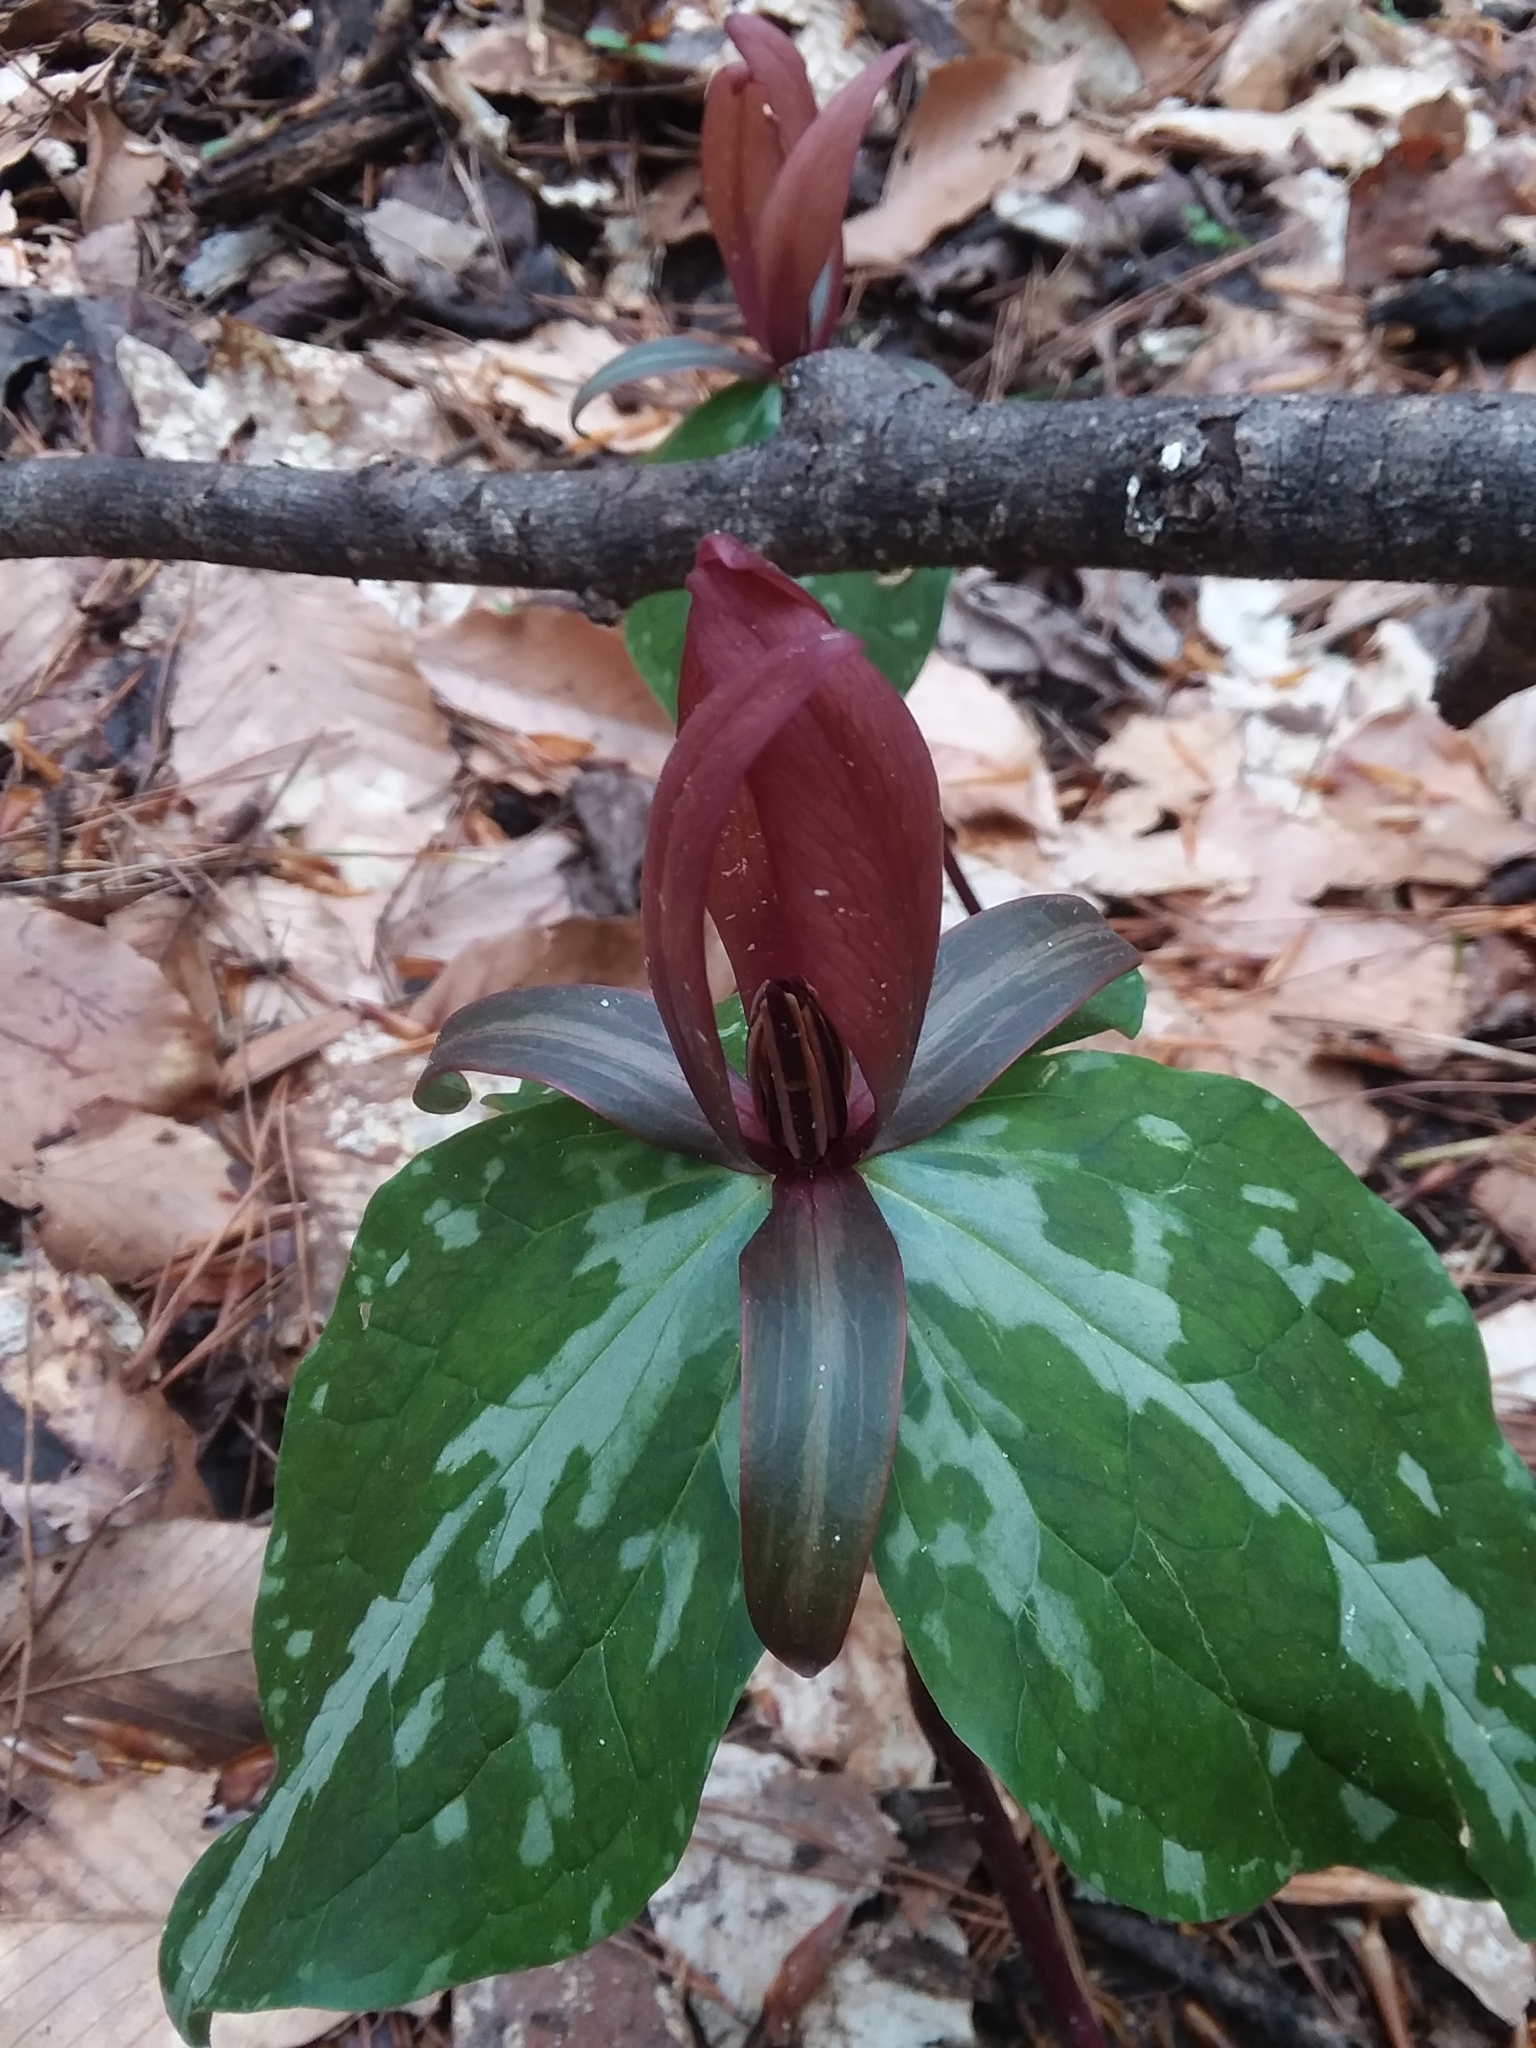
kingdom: Plantae
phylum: Tracheophyta
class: Liliopsida
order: Liliales
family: Melanthiaceae
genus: Trillium
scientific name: Trillium cuneatum
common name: Cuneate trillium
